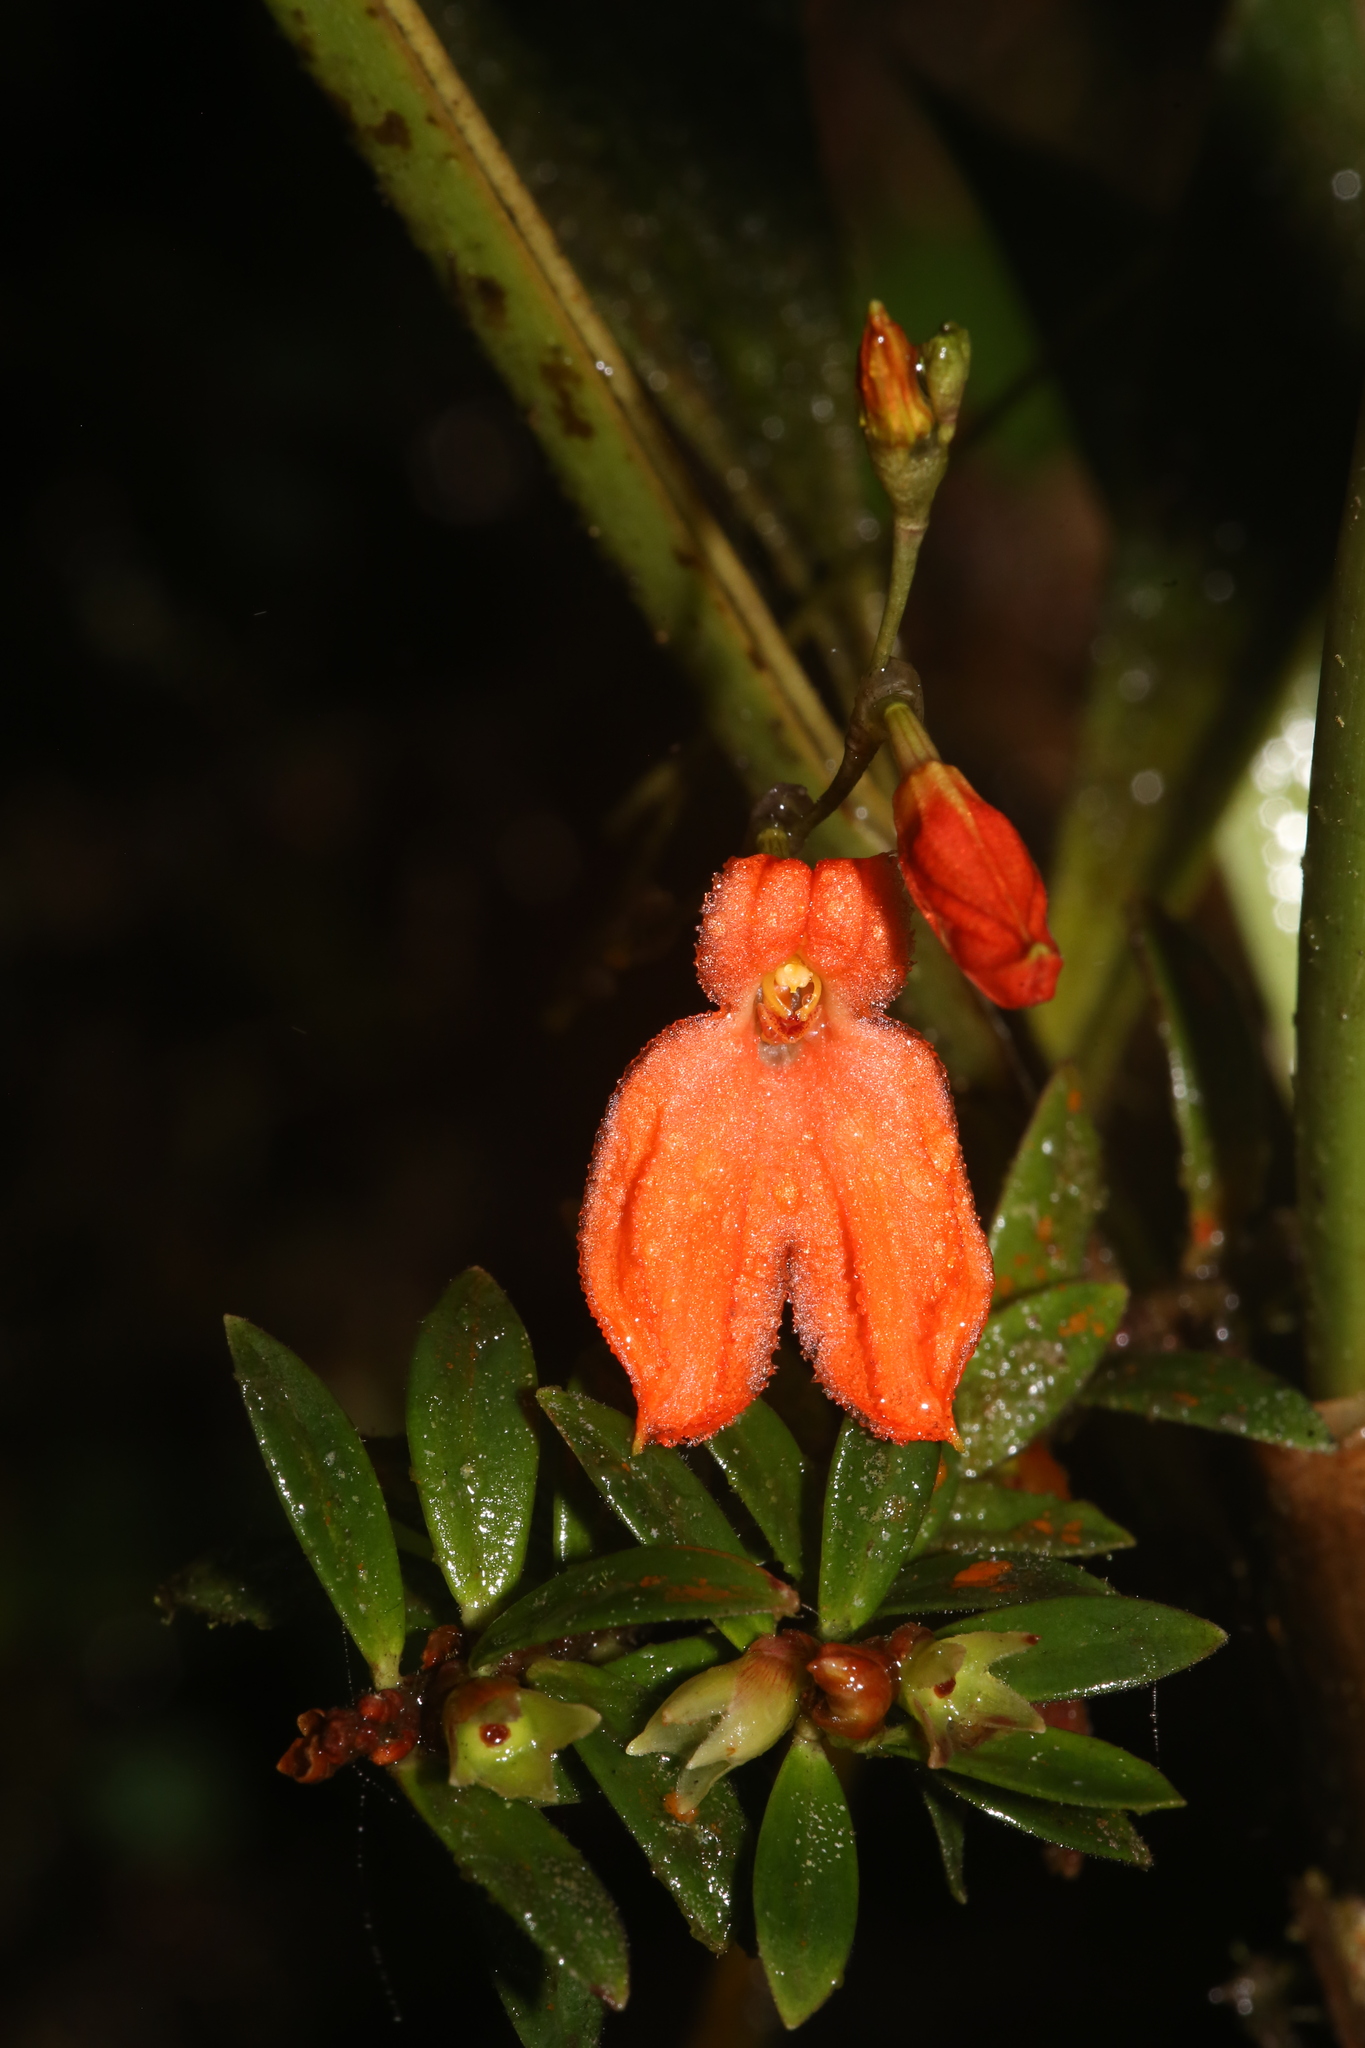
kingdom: Plantae
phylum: Tracheophyta
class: Liliopsida
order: Asparagales
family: Orchidaceae
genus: Porroglossum
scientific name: Porroglossum eduardi
